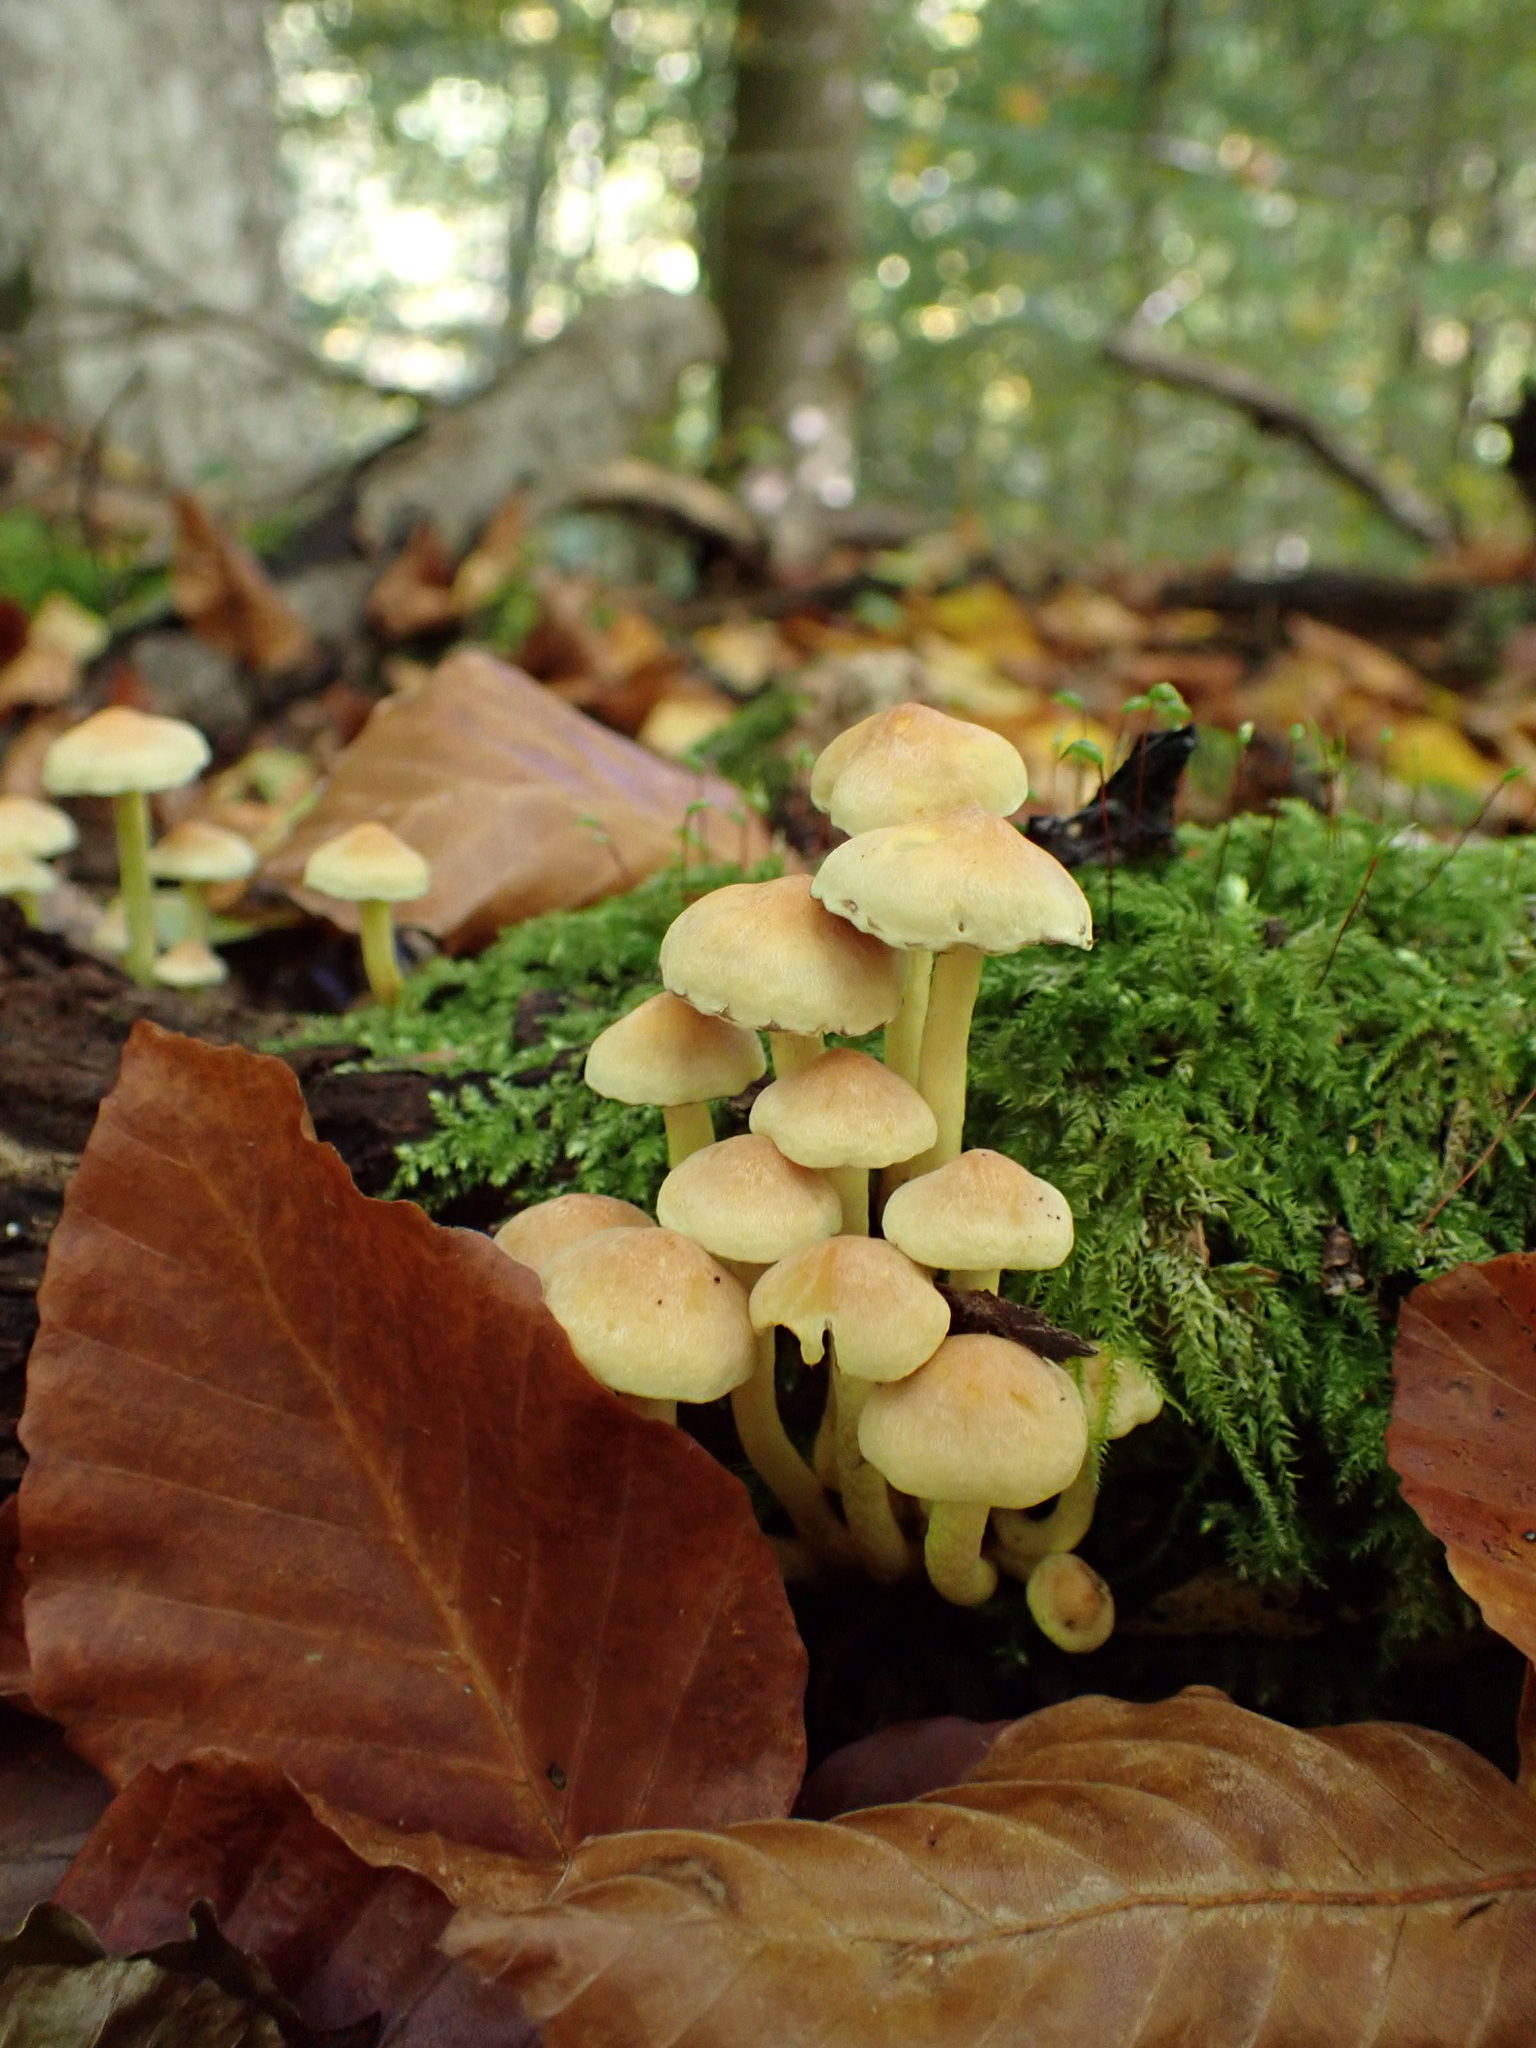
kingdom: Fungi
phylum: Basidiomycota
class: Agaricomycetes
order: Agaricales
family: Strophariaceae
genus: Hypholoma
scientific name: Hypholoma fasciculare
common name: Sulphur tuft
